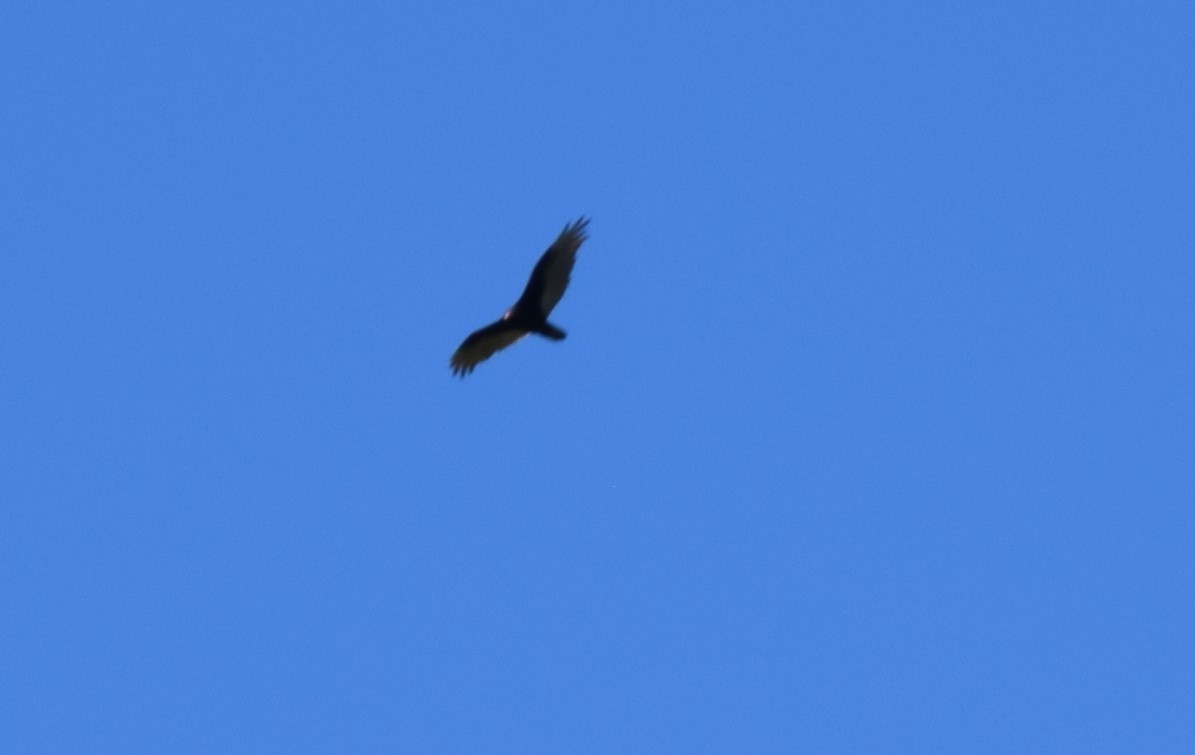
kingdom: Animalia
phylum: Chordata
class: Aves
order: Accipitriformes
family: Cathartidae
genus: Cathartes
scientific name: Cathartes aura
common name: Turkey vulture
